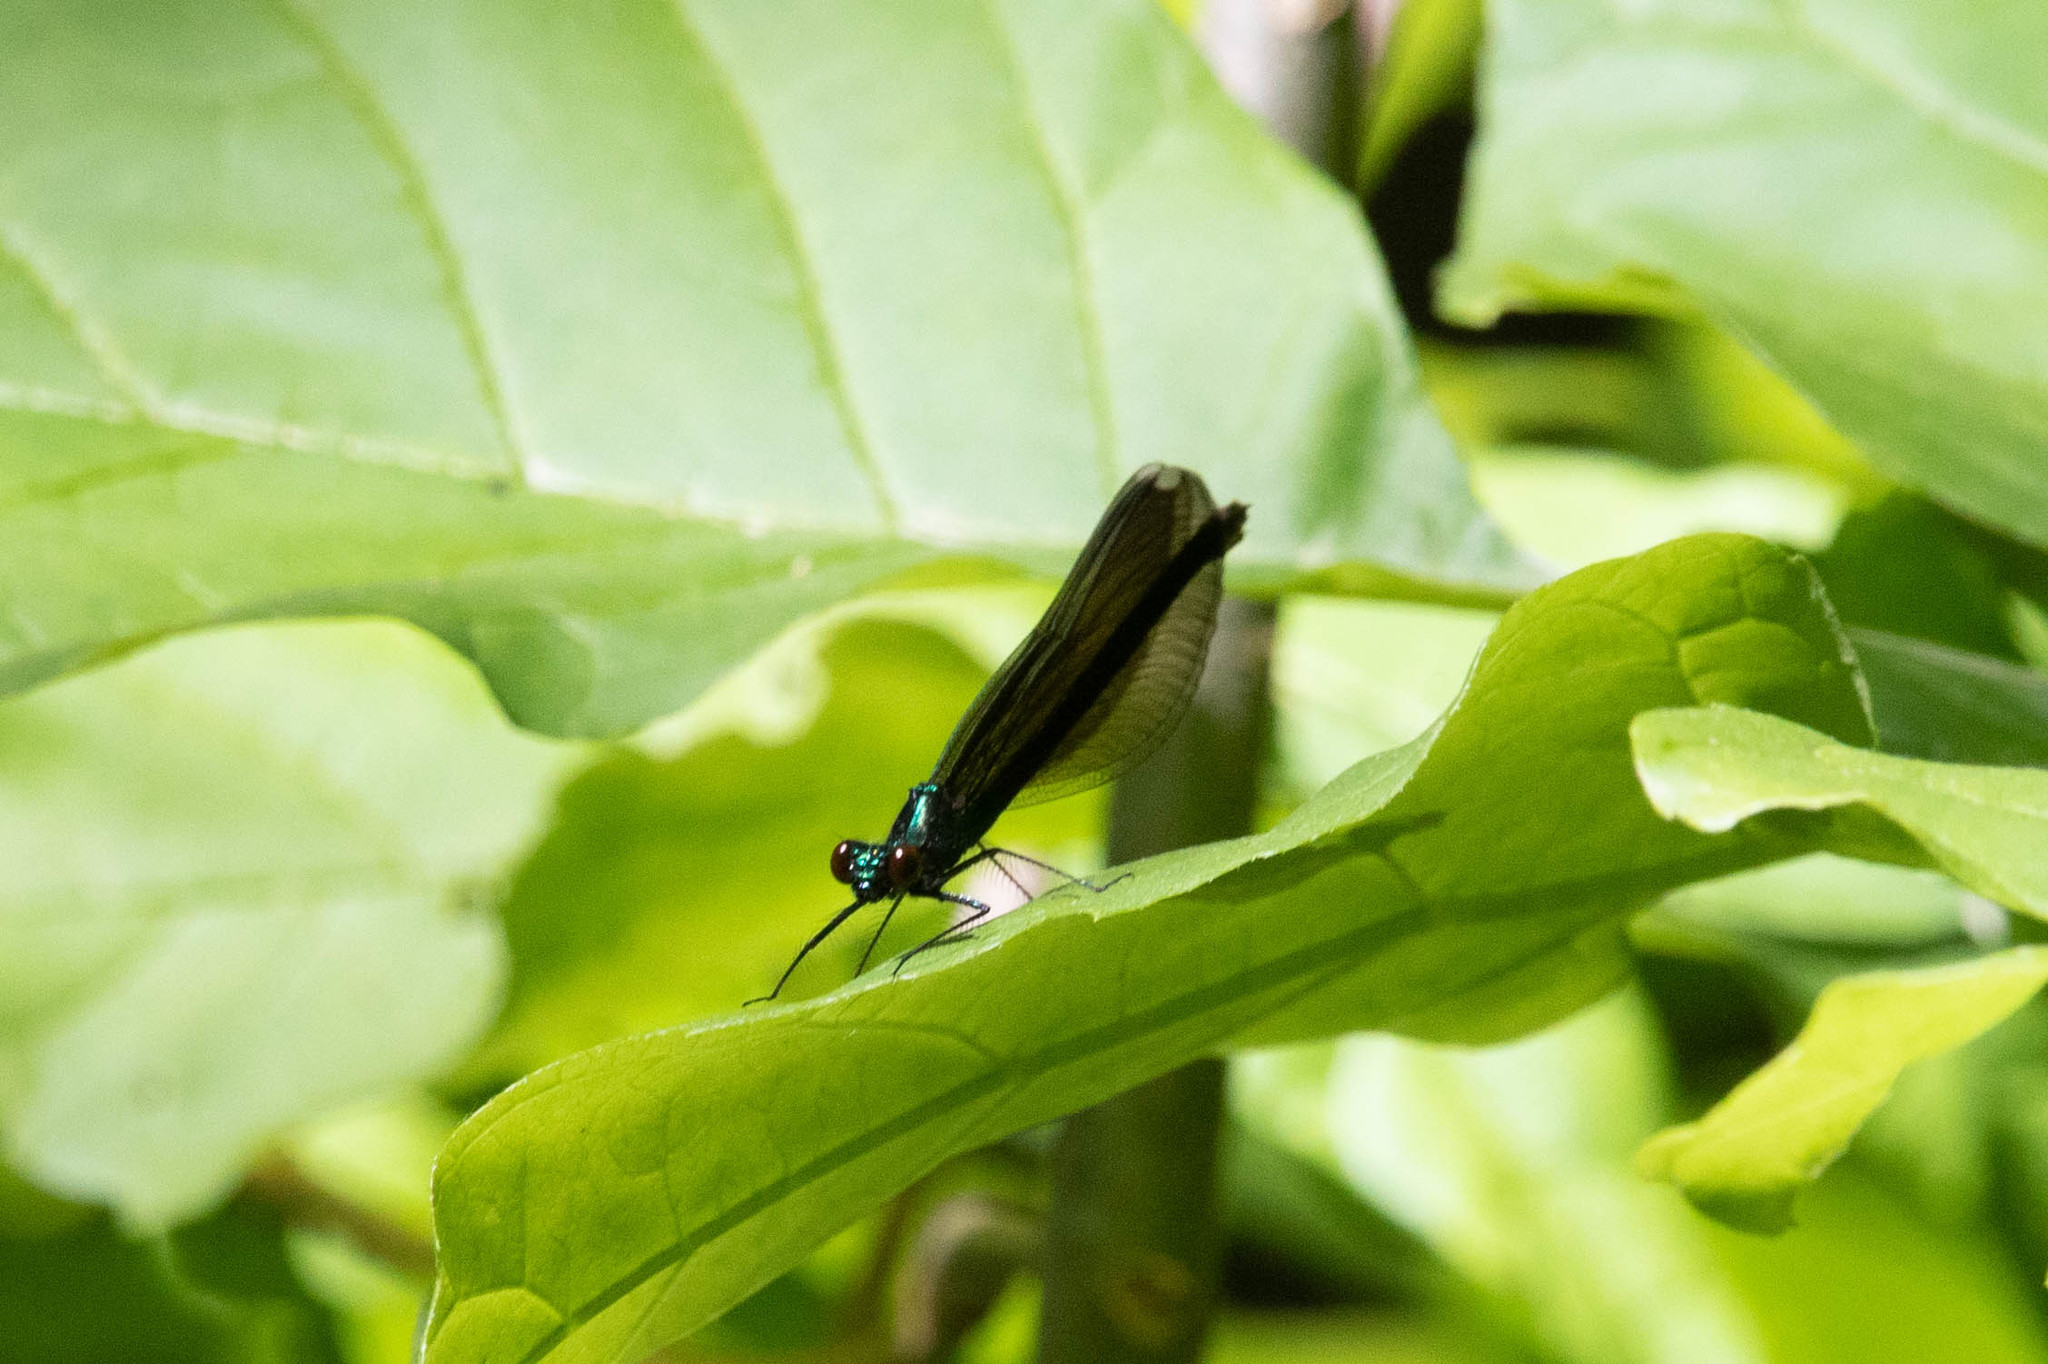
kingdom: Animalia
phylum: Arthropoda
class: Insecta
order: Odonata
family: Calopterygidae
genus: Calopteryx
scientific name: Calopteryx maculata
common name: Ebony jewelwing
